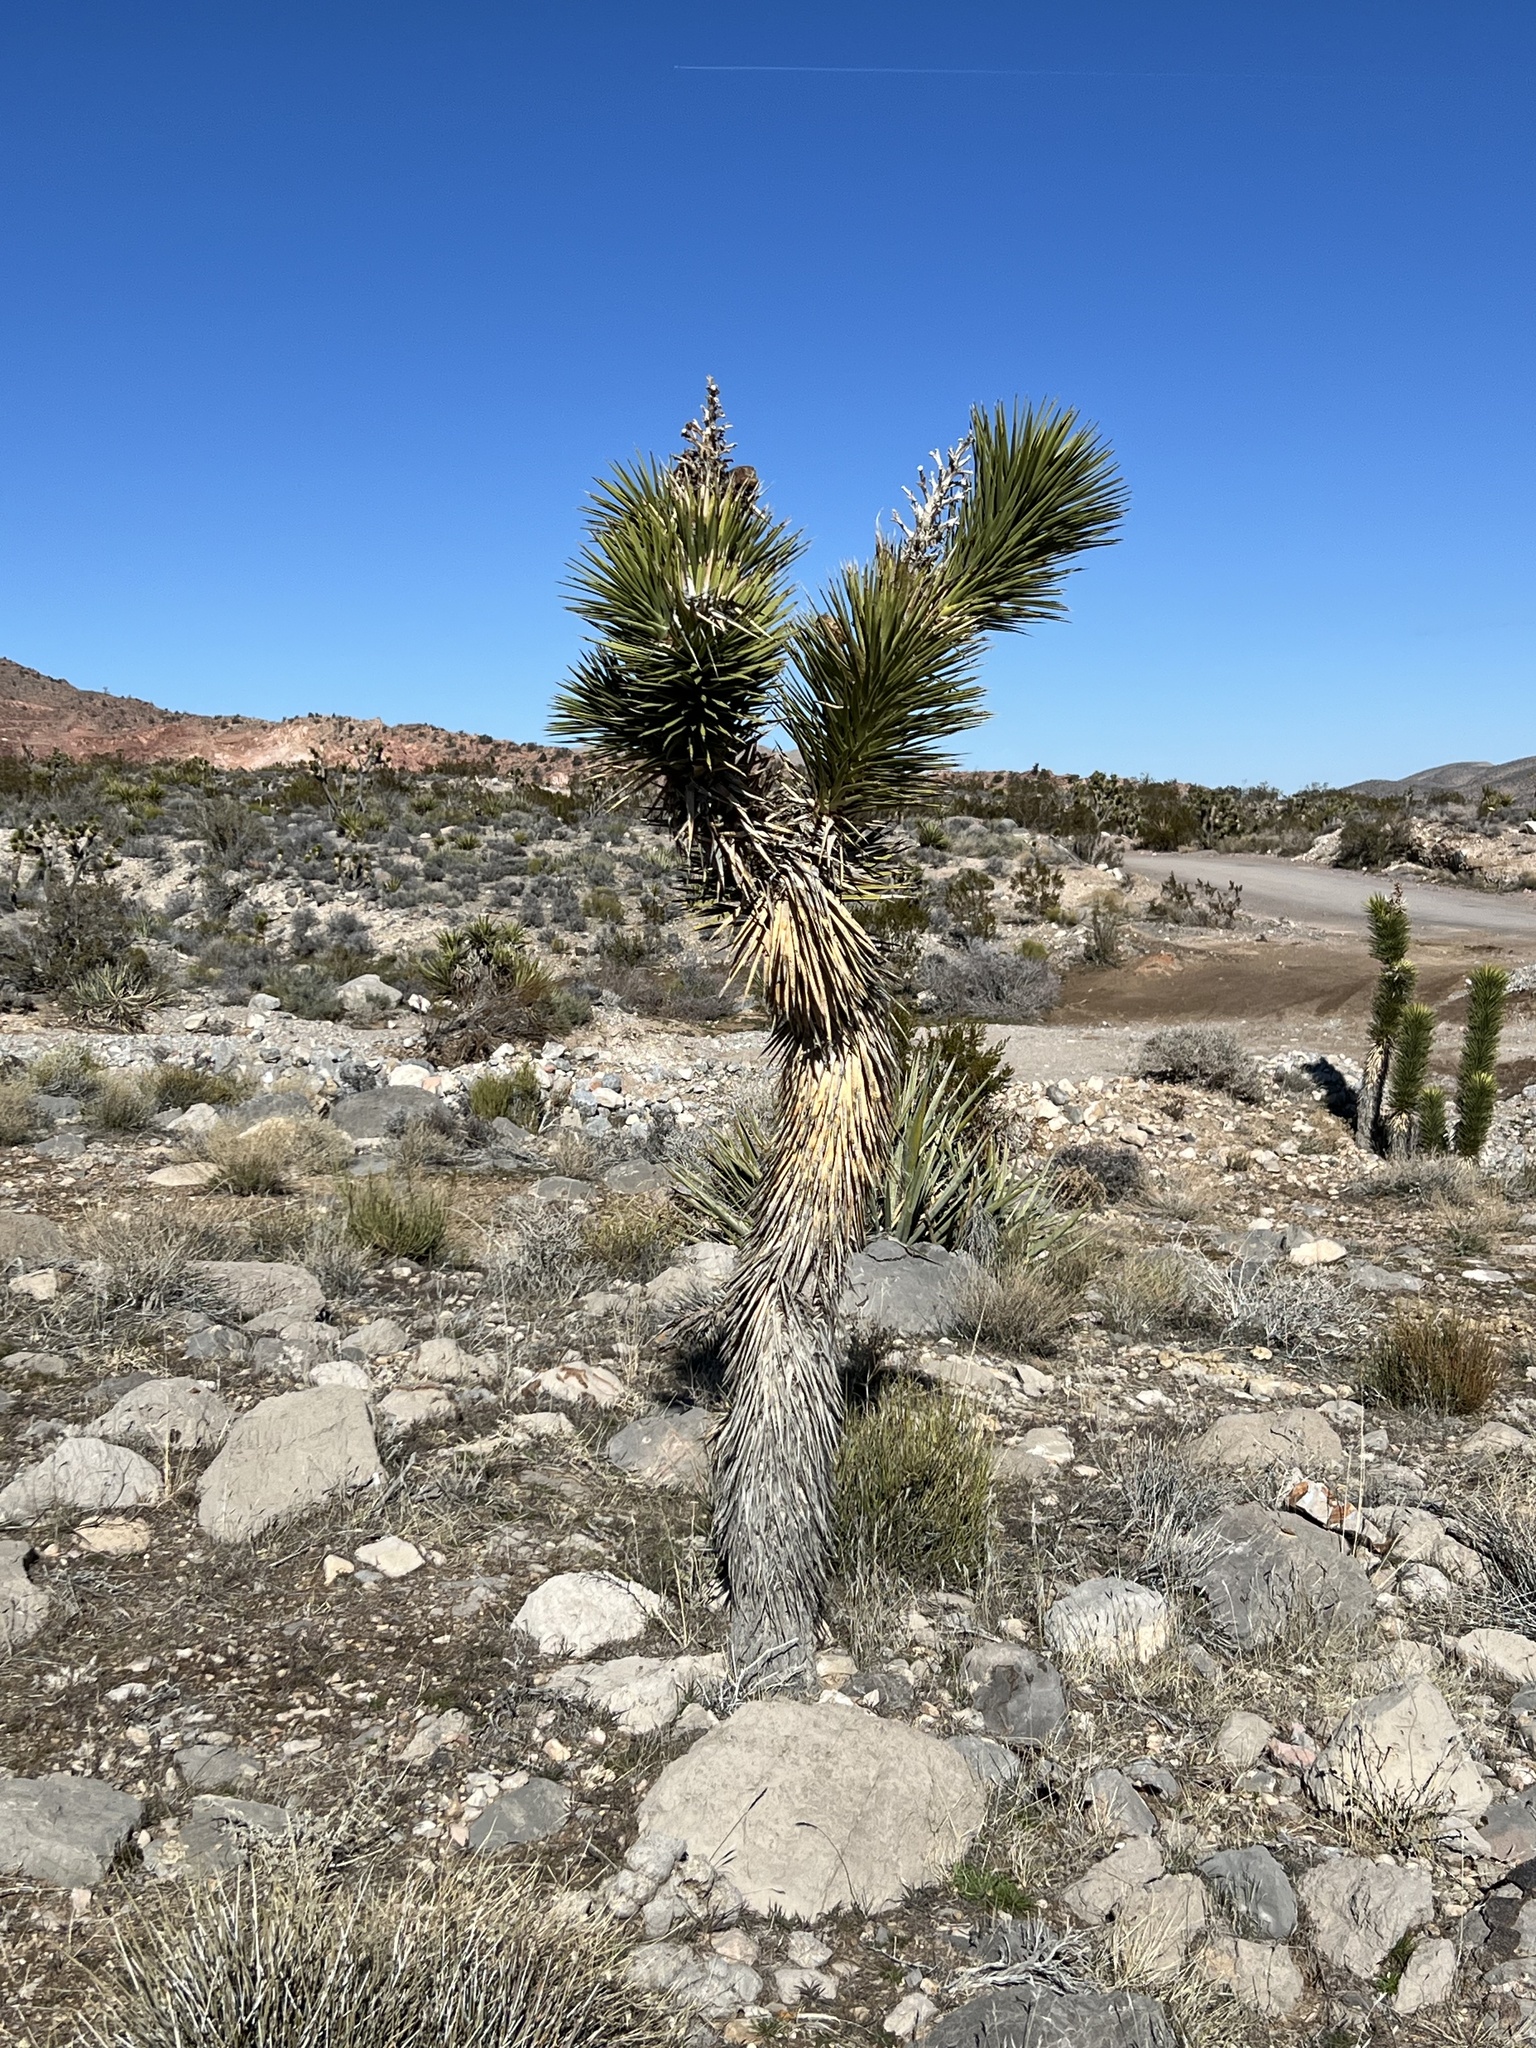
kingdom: Plantae
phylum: Tracheophyta
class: Liliopsida
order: Asparagales
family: Asparagaceae
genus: Yucca
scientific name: Yucca brevifolia
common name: Joshua tree
